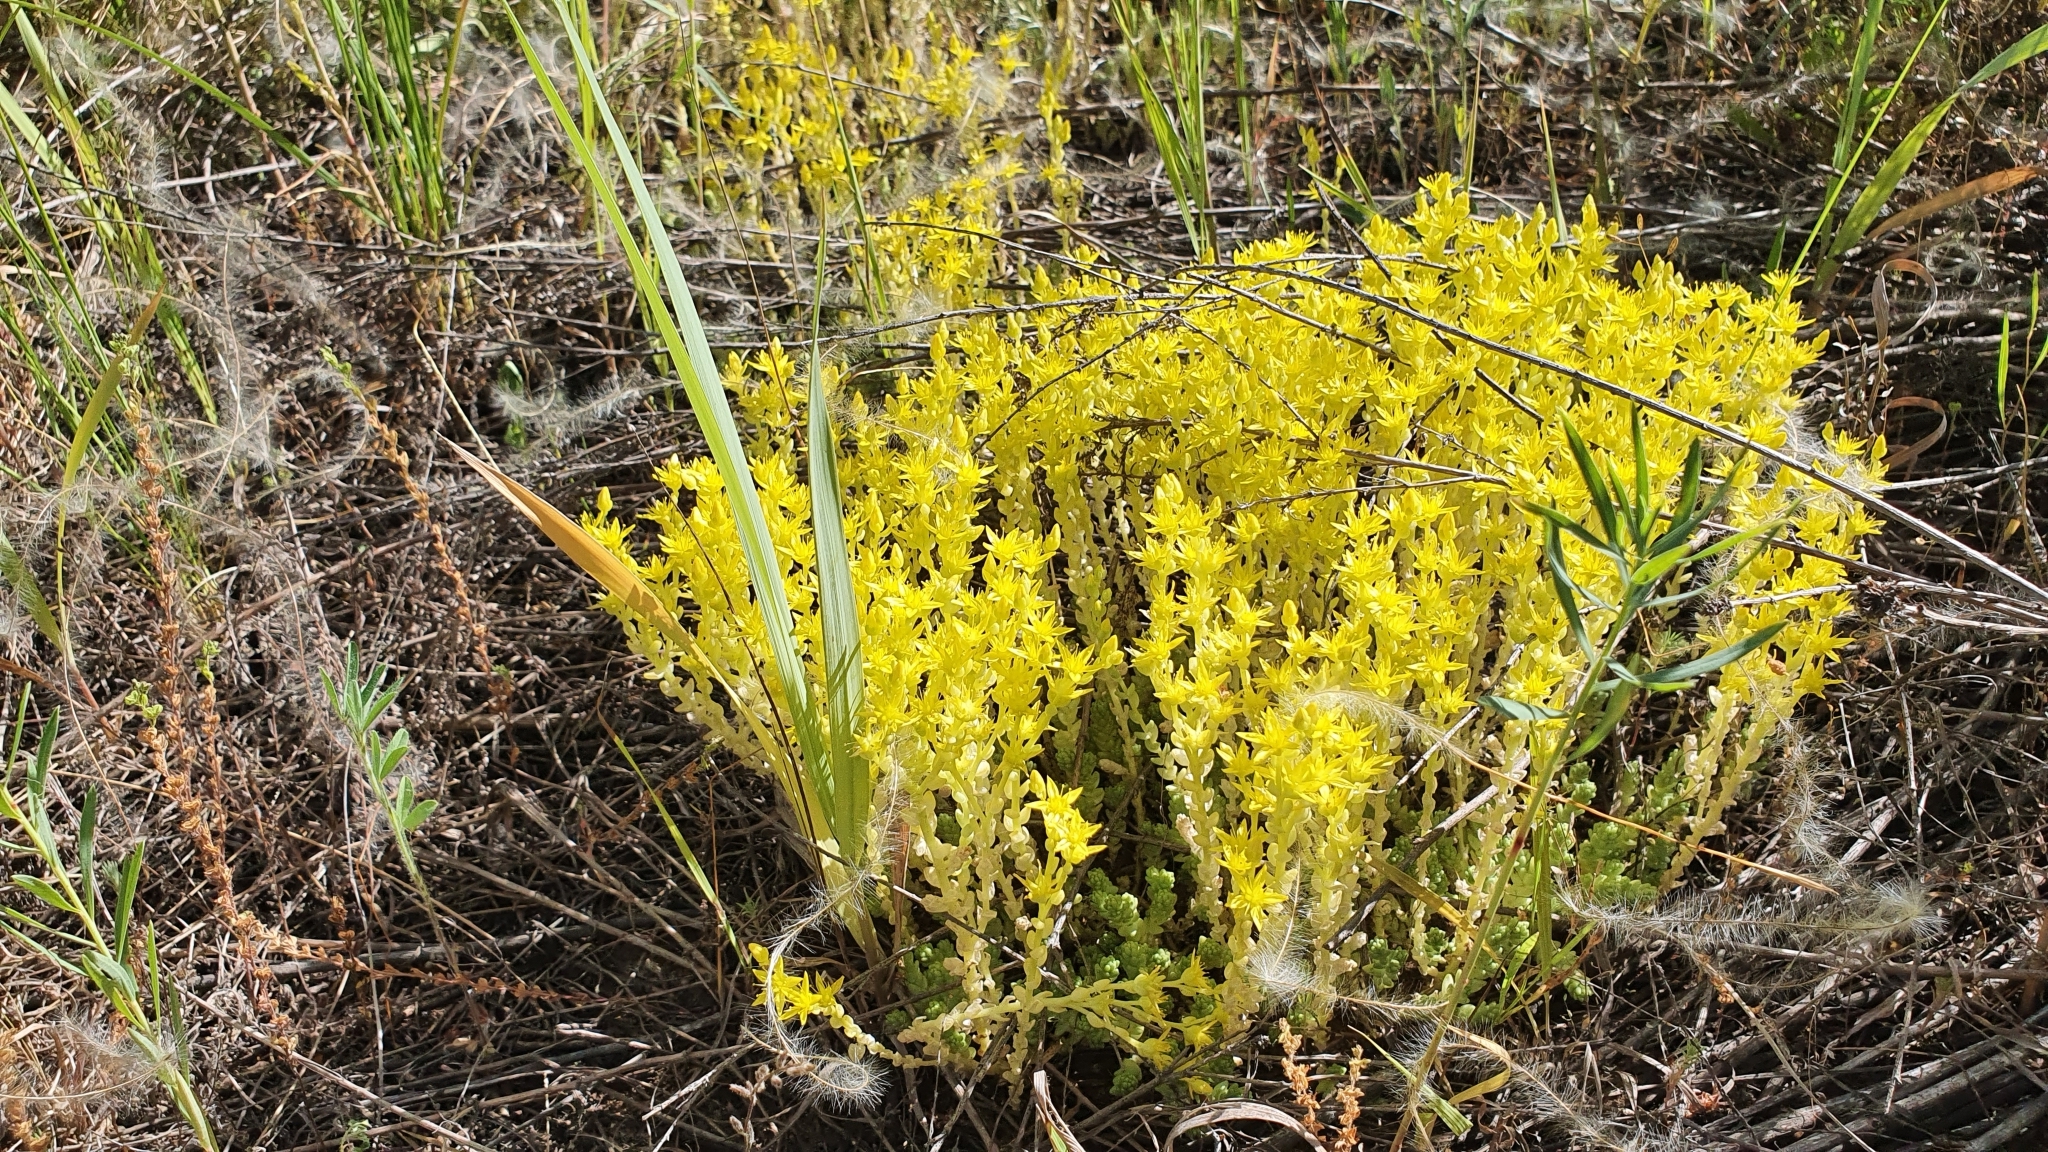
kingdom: Plantae
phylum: Tracheophyta
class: Magnoliopsida
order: Saxifragales
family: Crassulaceae
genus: Sedum
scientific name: Sedum acre
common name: Biting stonecrop
